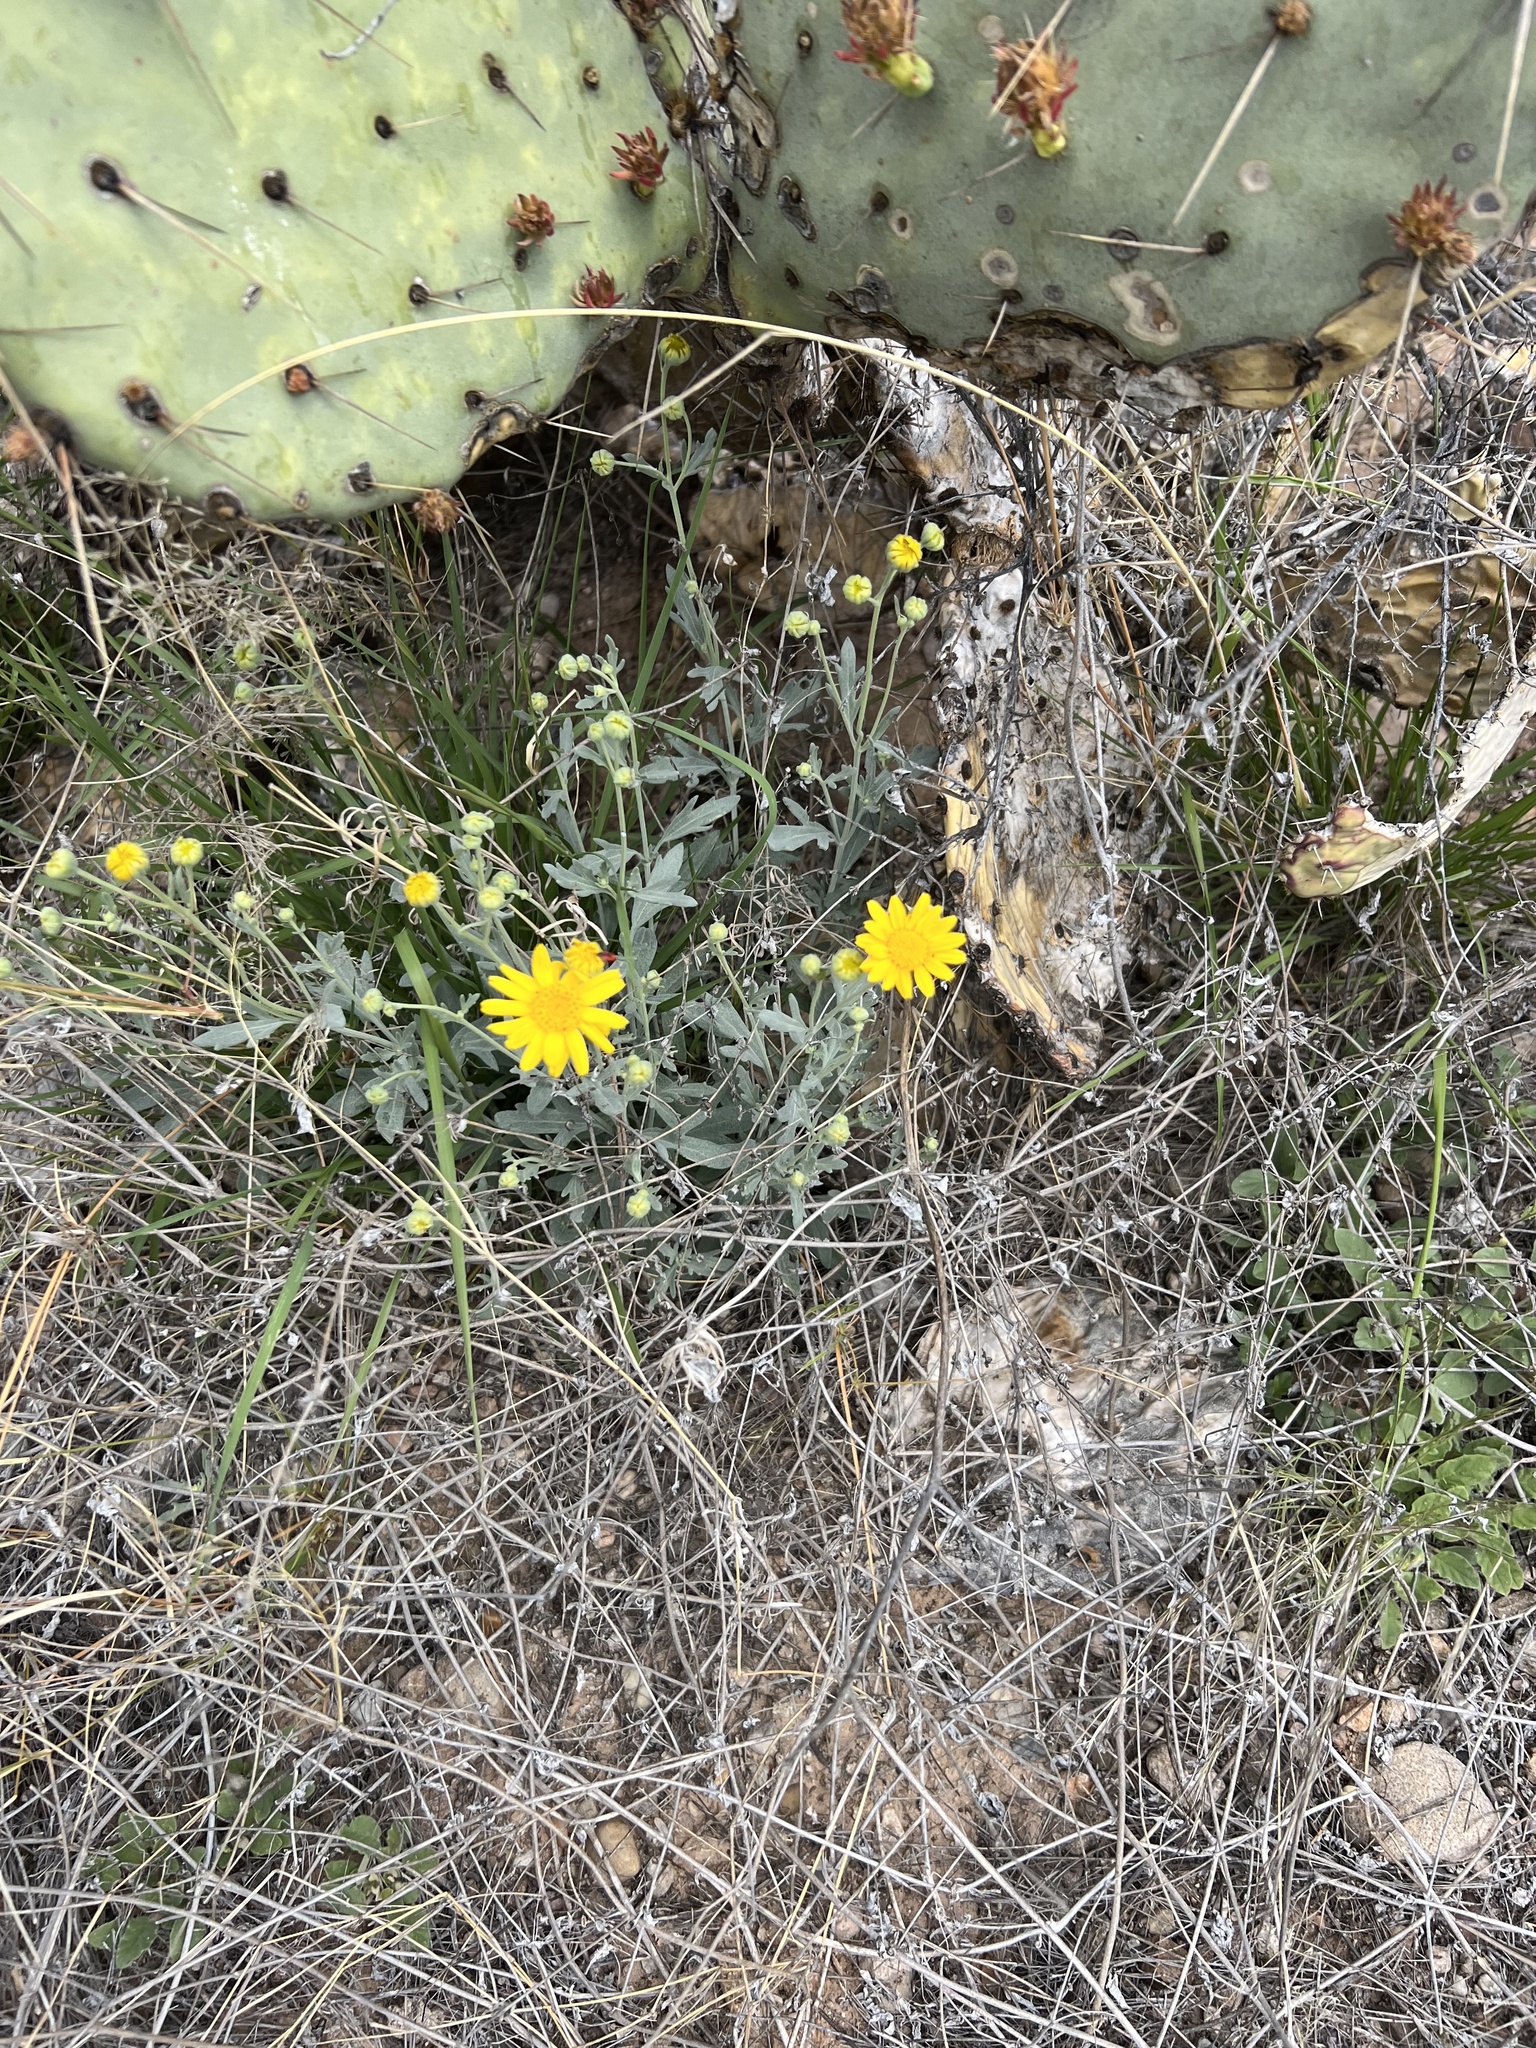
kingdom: Plantae
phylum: Tracheophyta
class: Magnoliopsida
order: Asterales
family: Asteraceae
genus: Picradeniopsis
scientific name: Picradeniopsis absinthifolia
